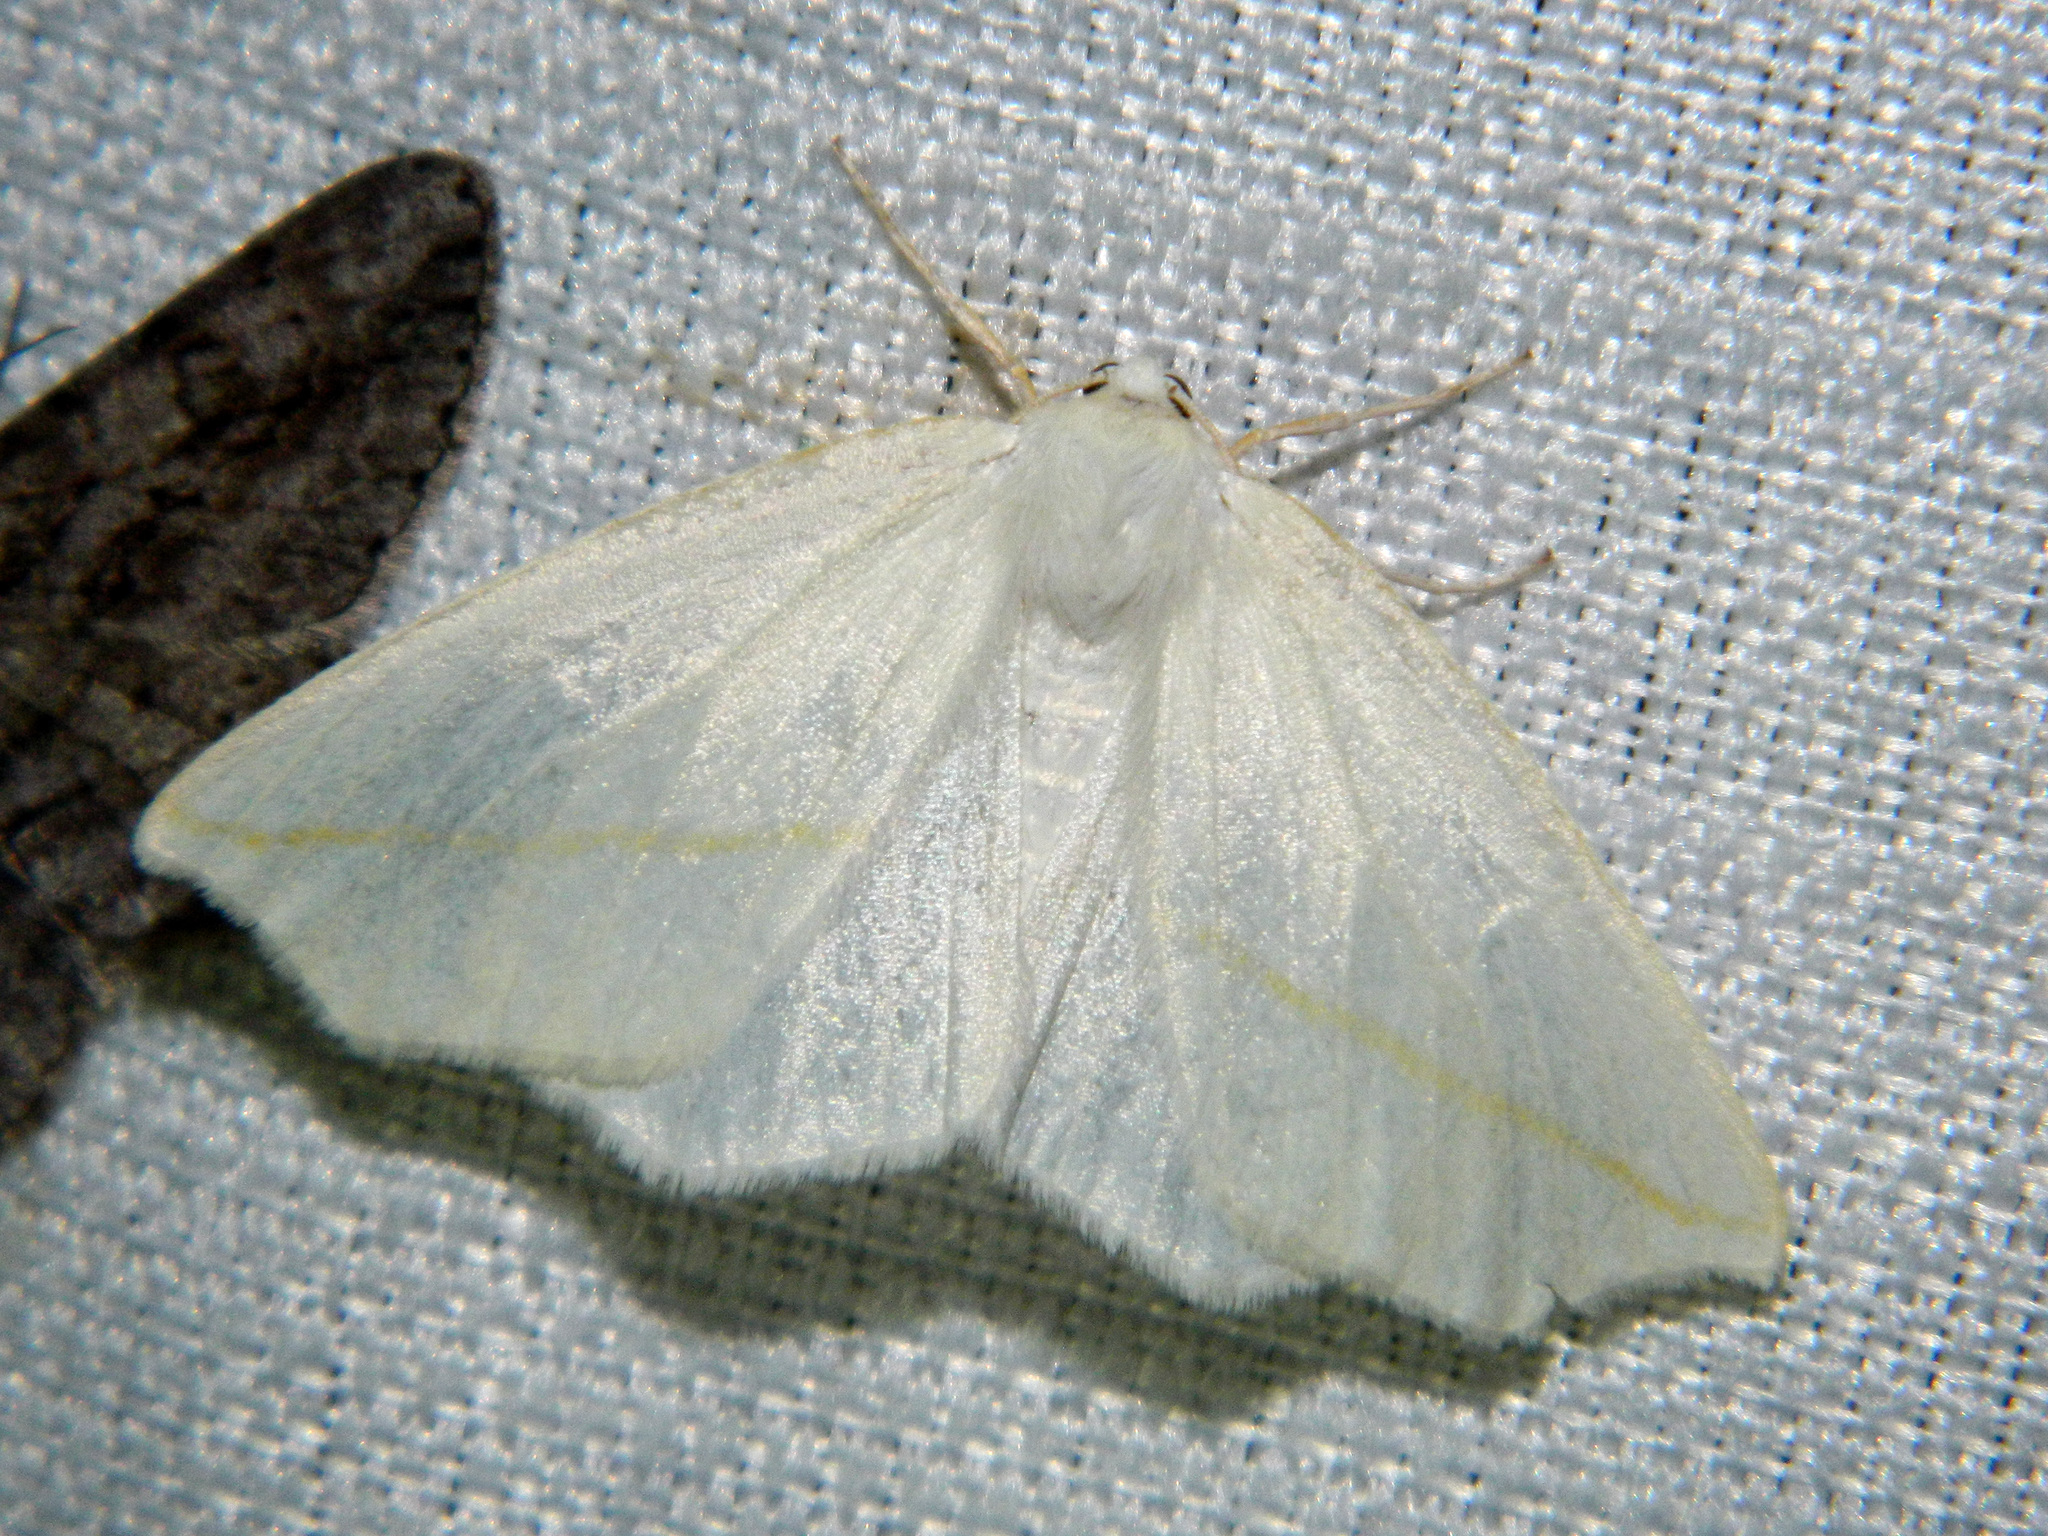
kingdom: Animalia
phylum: Arthropoda
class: Insecta
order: Lepidoptera
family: Geometridae
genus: Tetracis
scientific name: Tetracis cachexiata
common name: White slant-line
